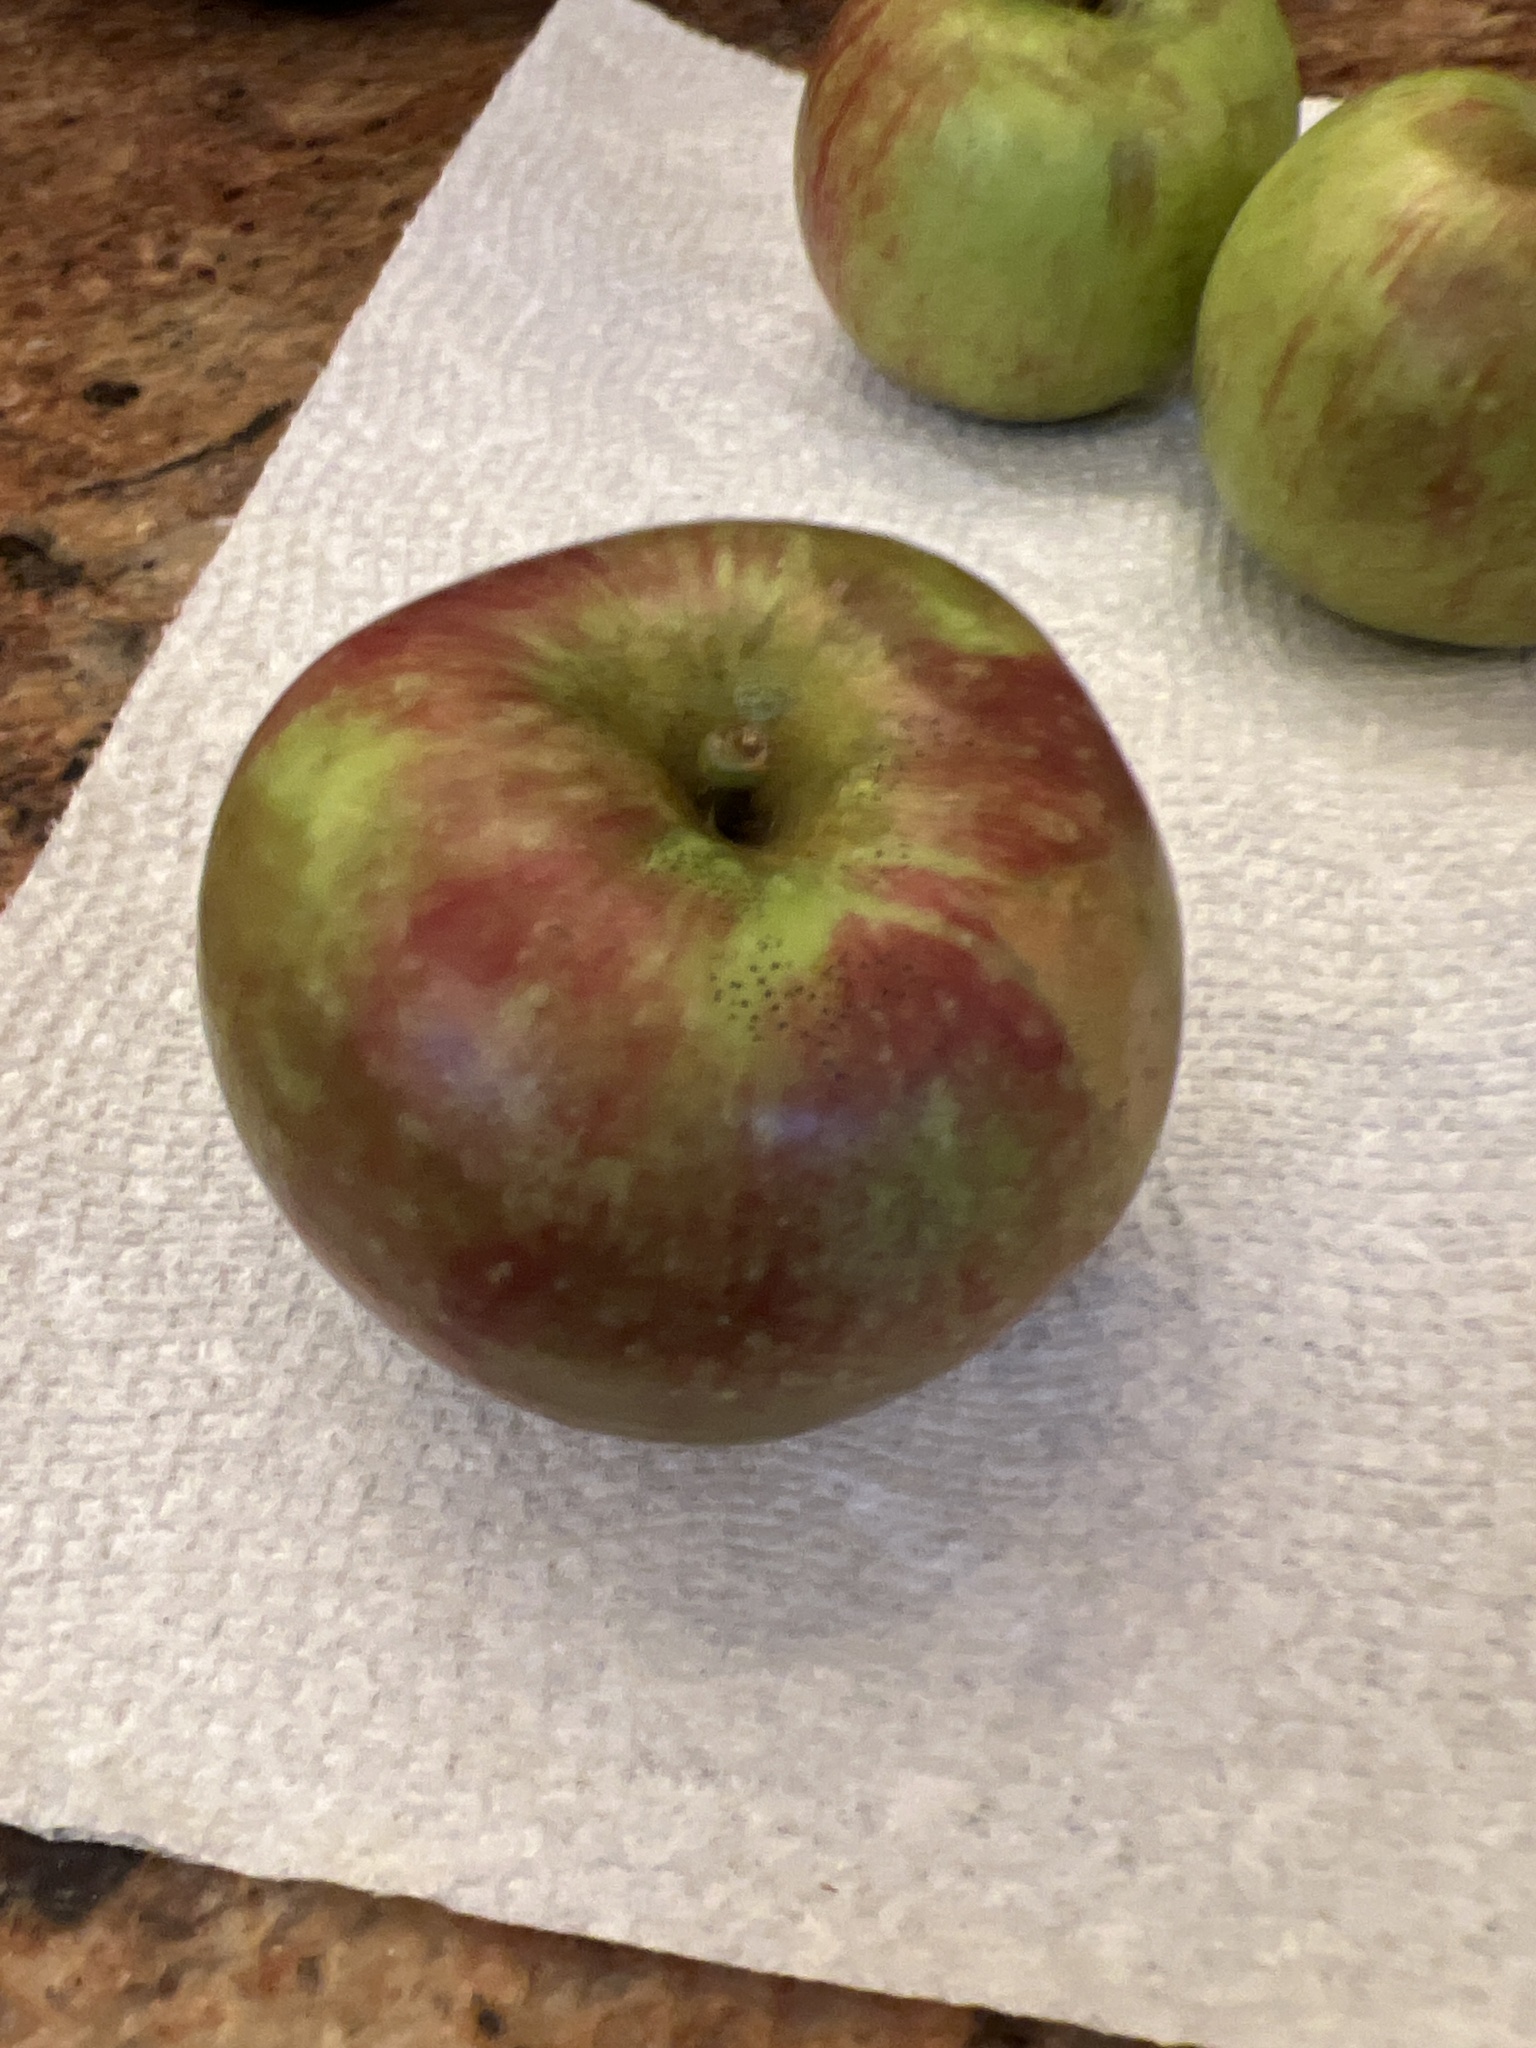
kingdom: Plantae
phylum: Tracheophyta
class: Magnoliopsida
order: Rosales
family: Rosaceae
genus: Malus
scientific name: Malus domestica
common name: Apple
